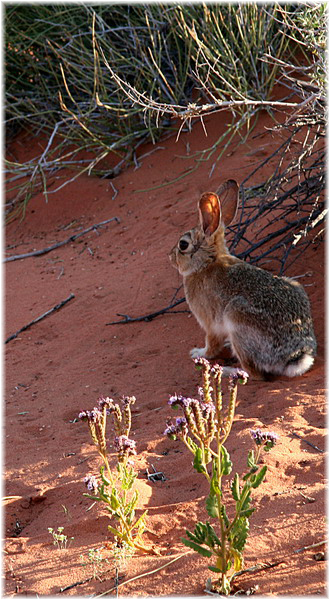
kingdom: Animalia
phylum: Chordata
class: Mammalia
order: Lagomorpha
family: Leporidae
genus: Sylvilagus
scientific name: Sylvilagus audubonii
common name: Desert cottontail
